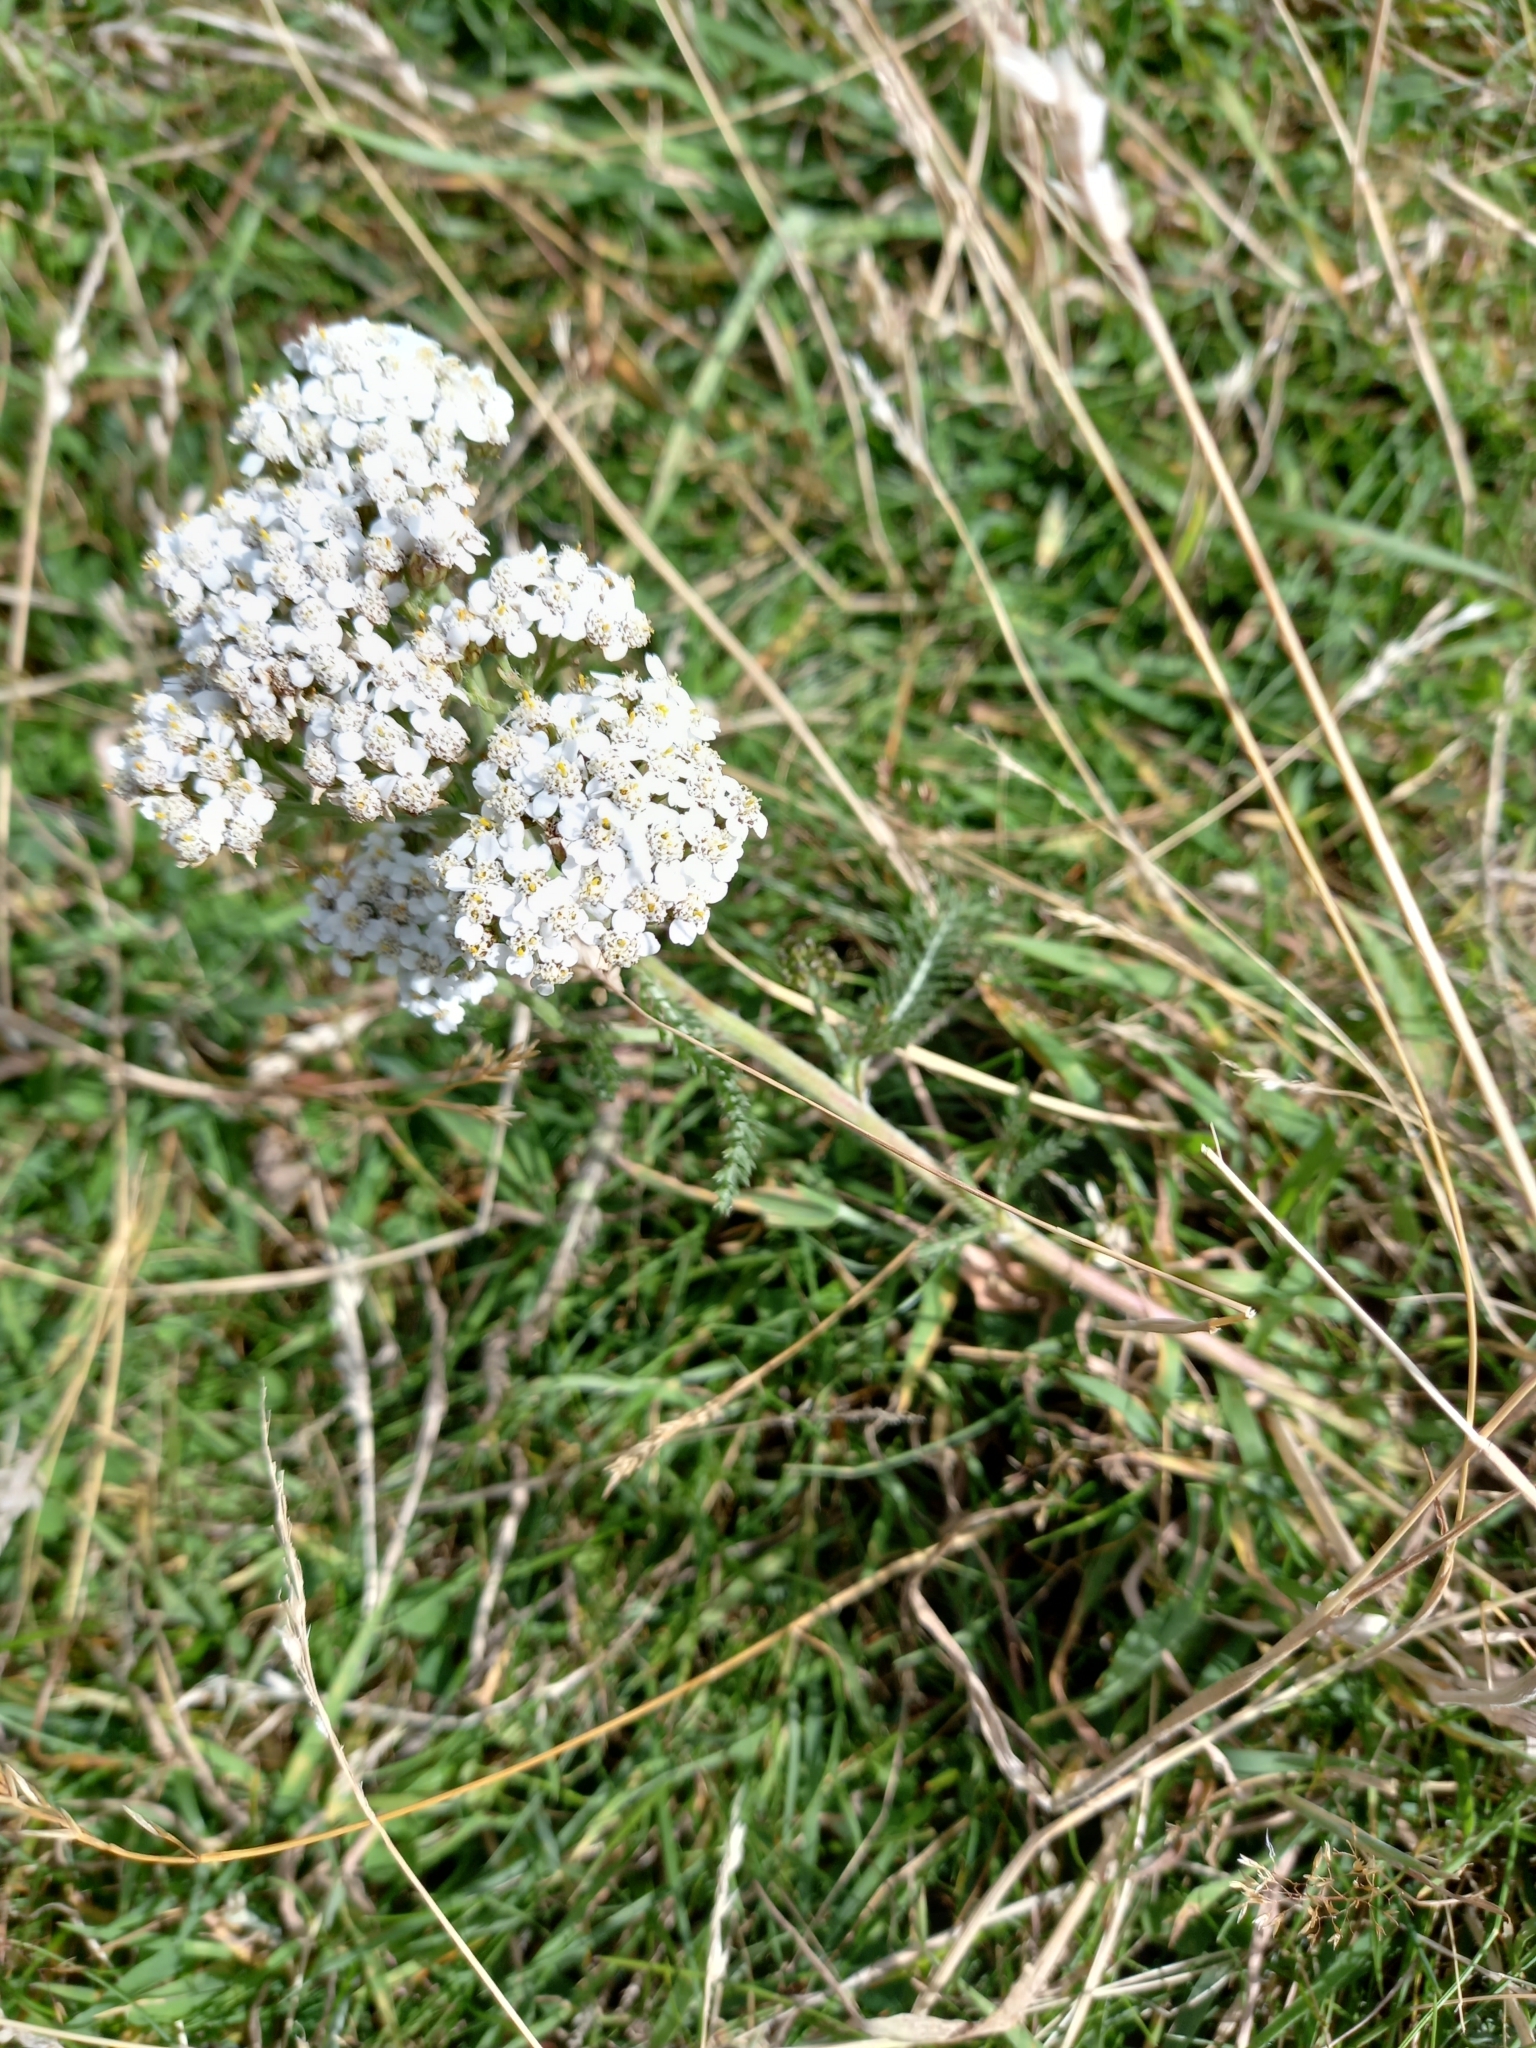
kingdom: Plantae
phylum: Tracheophyta
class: Magnoliopsida
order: Asterales
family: Asteraceae
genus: Achillea
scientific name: Achillea millefolium
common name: Yarrow
